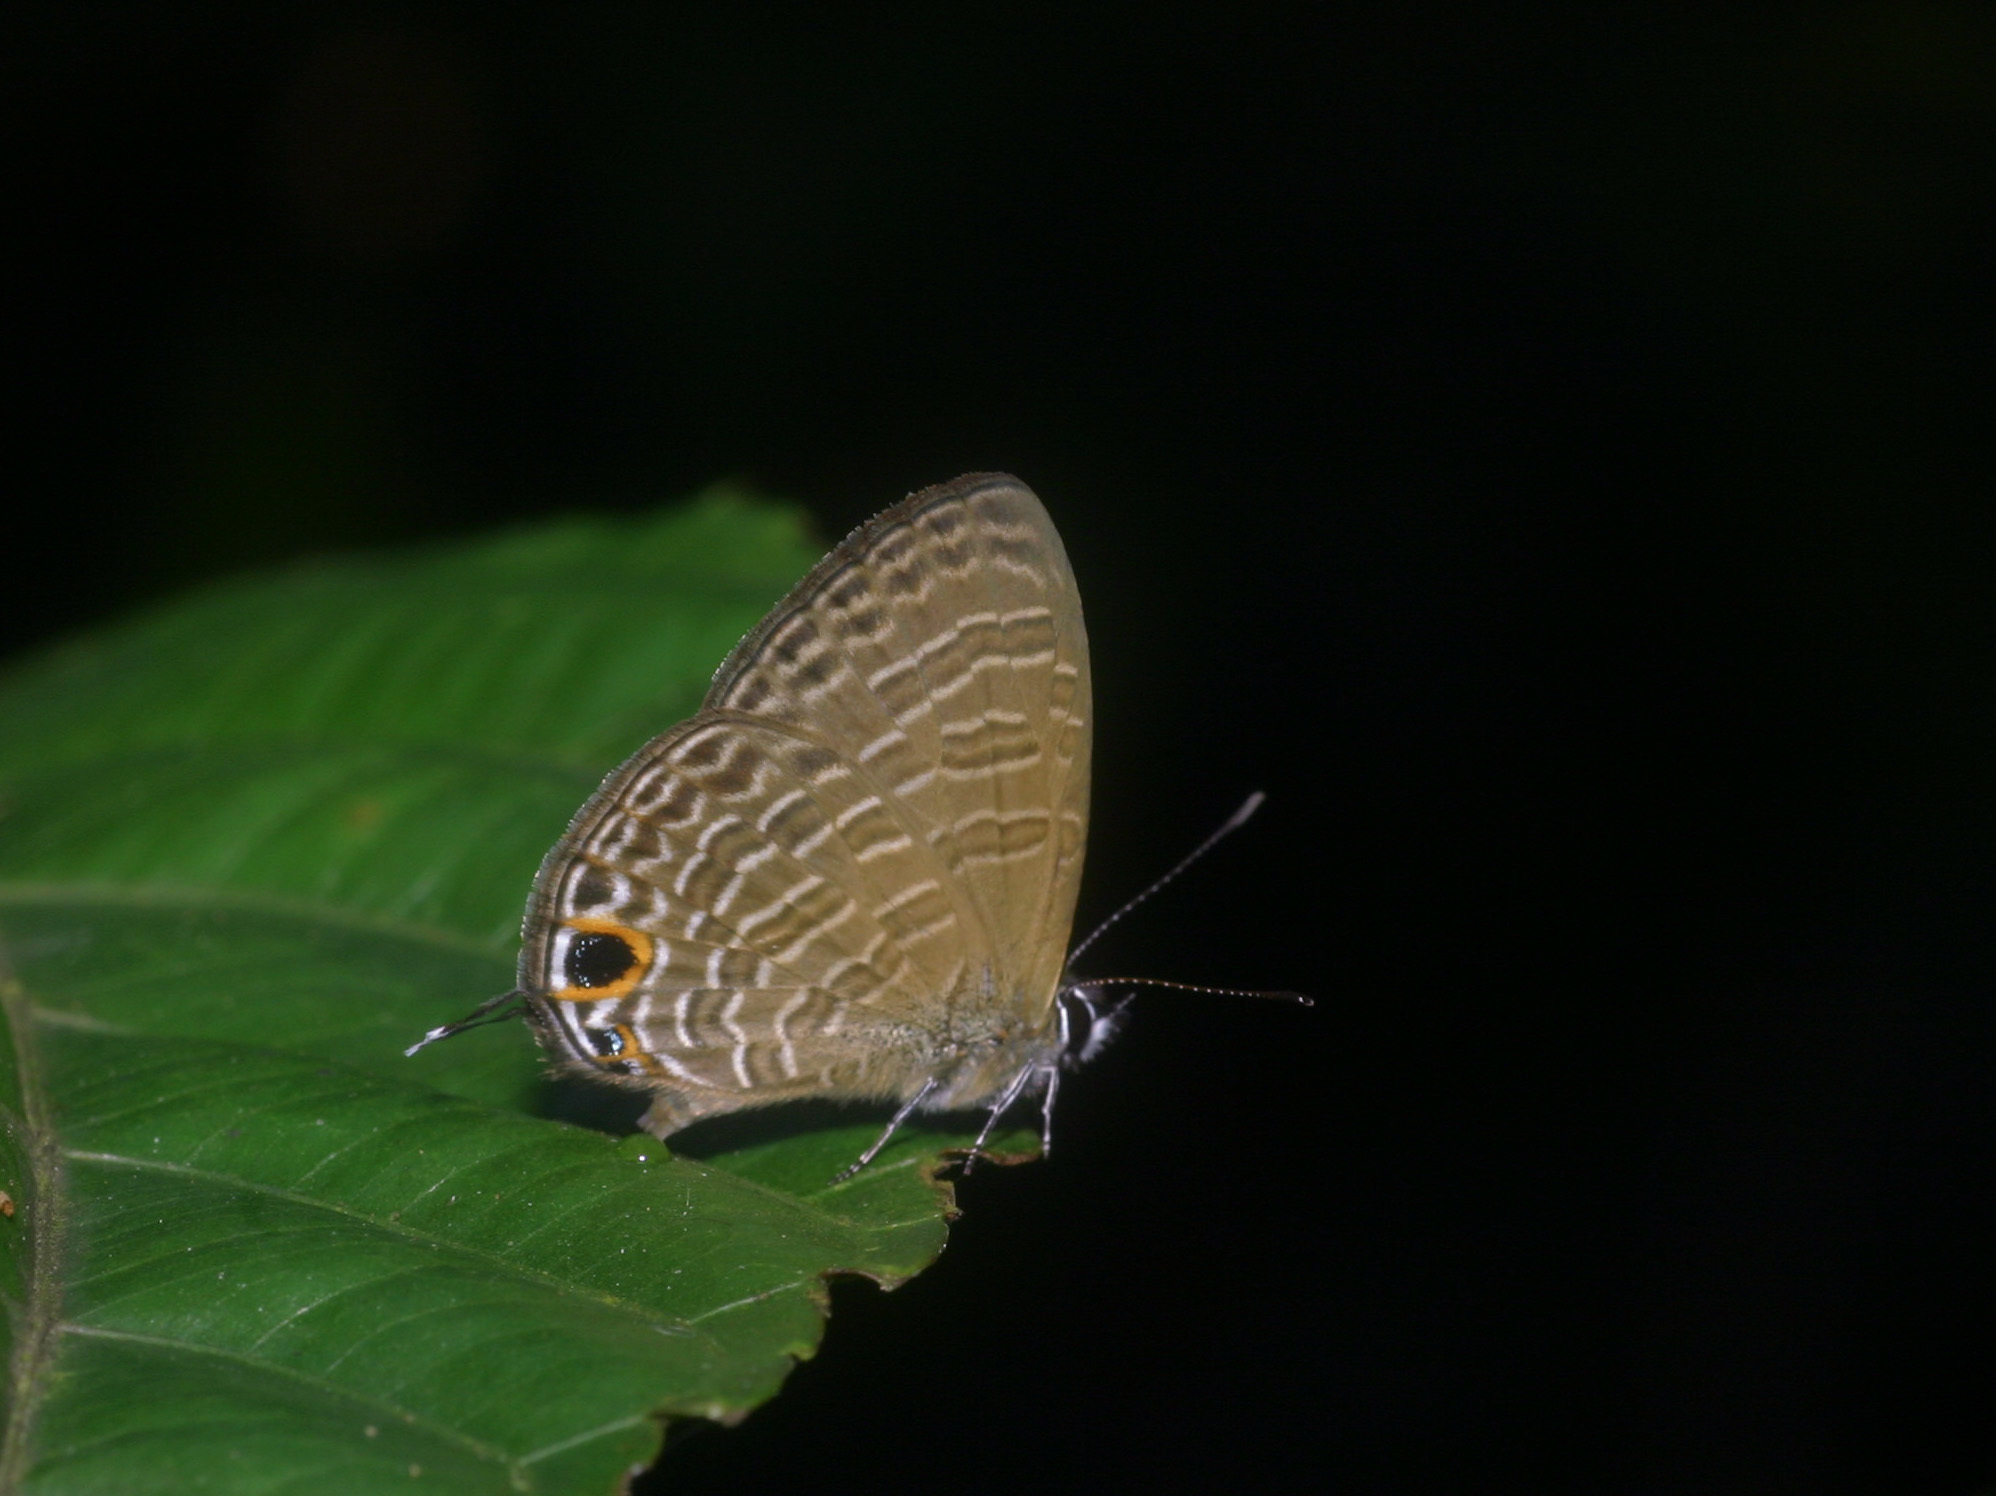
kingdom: Animalia
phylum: Arthropoda
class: Insecta
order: Lepidoptera
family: Lycaenidae
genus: Nacaduba
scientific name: Nacaduba berenice
